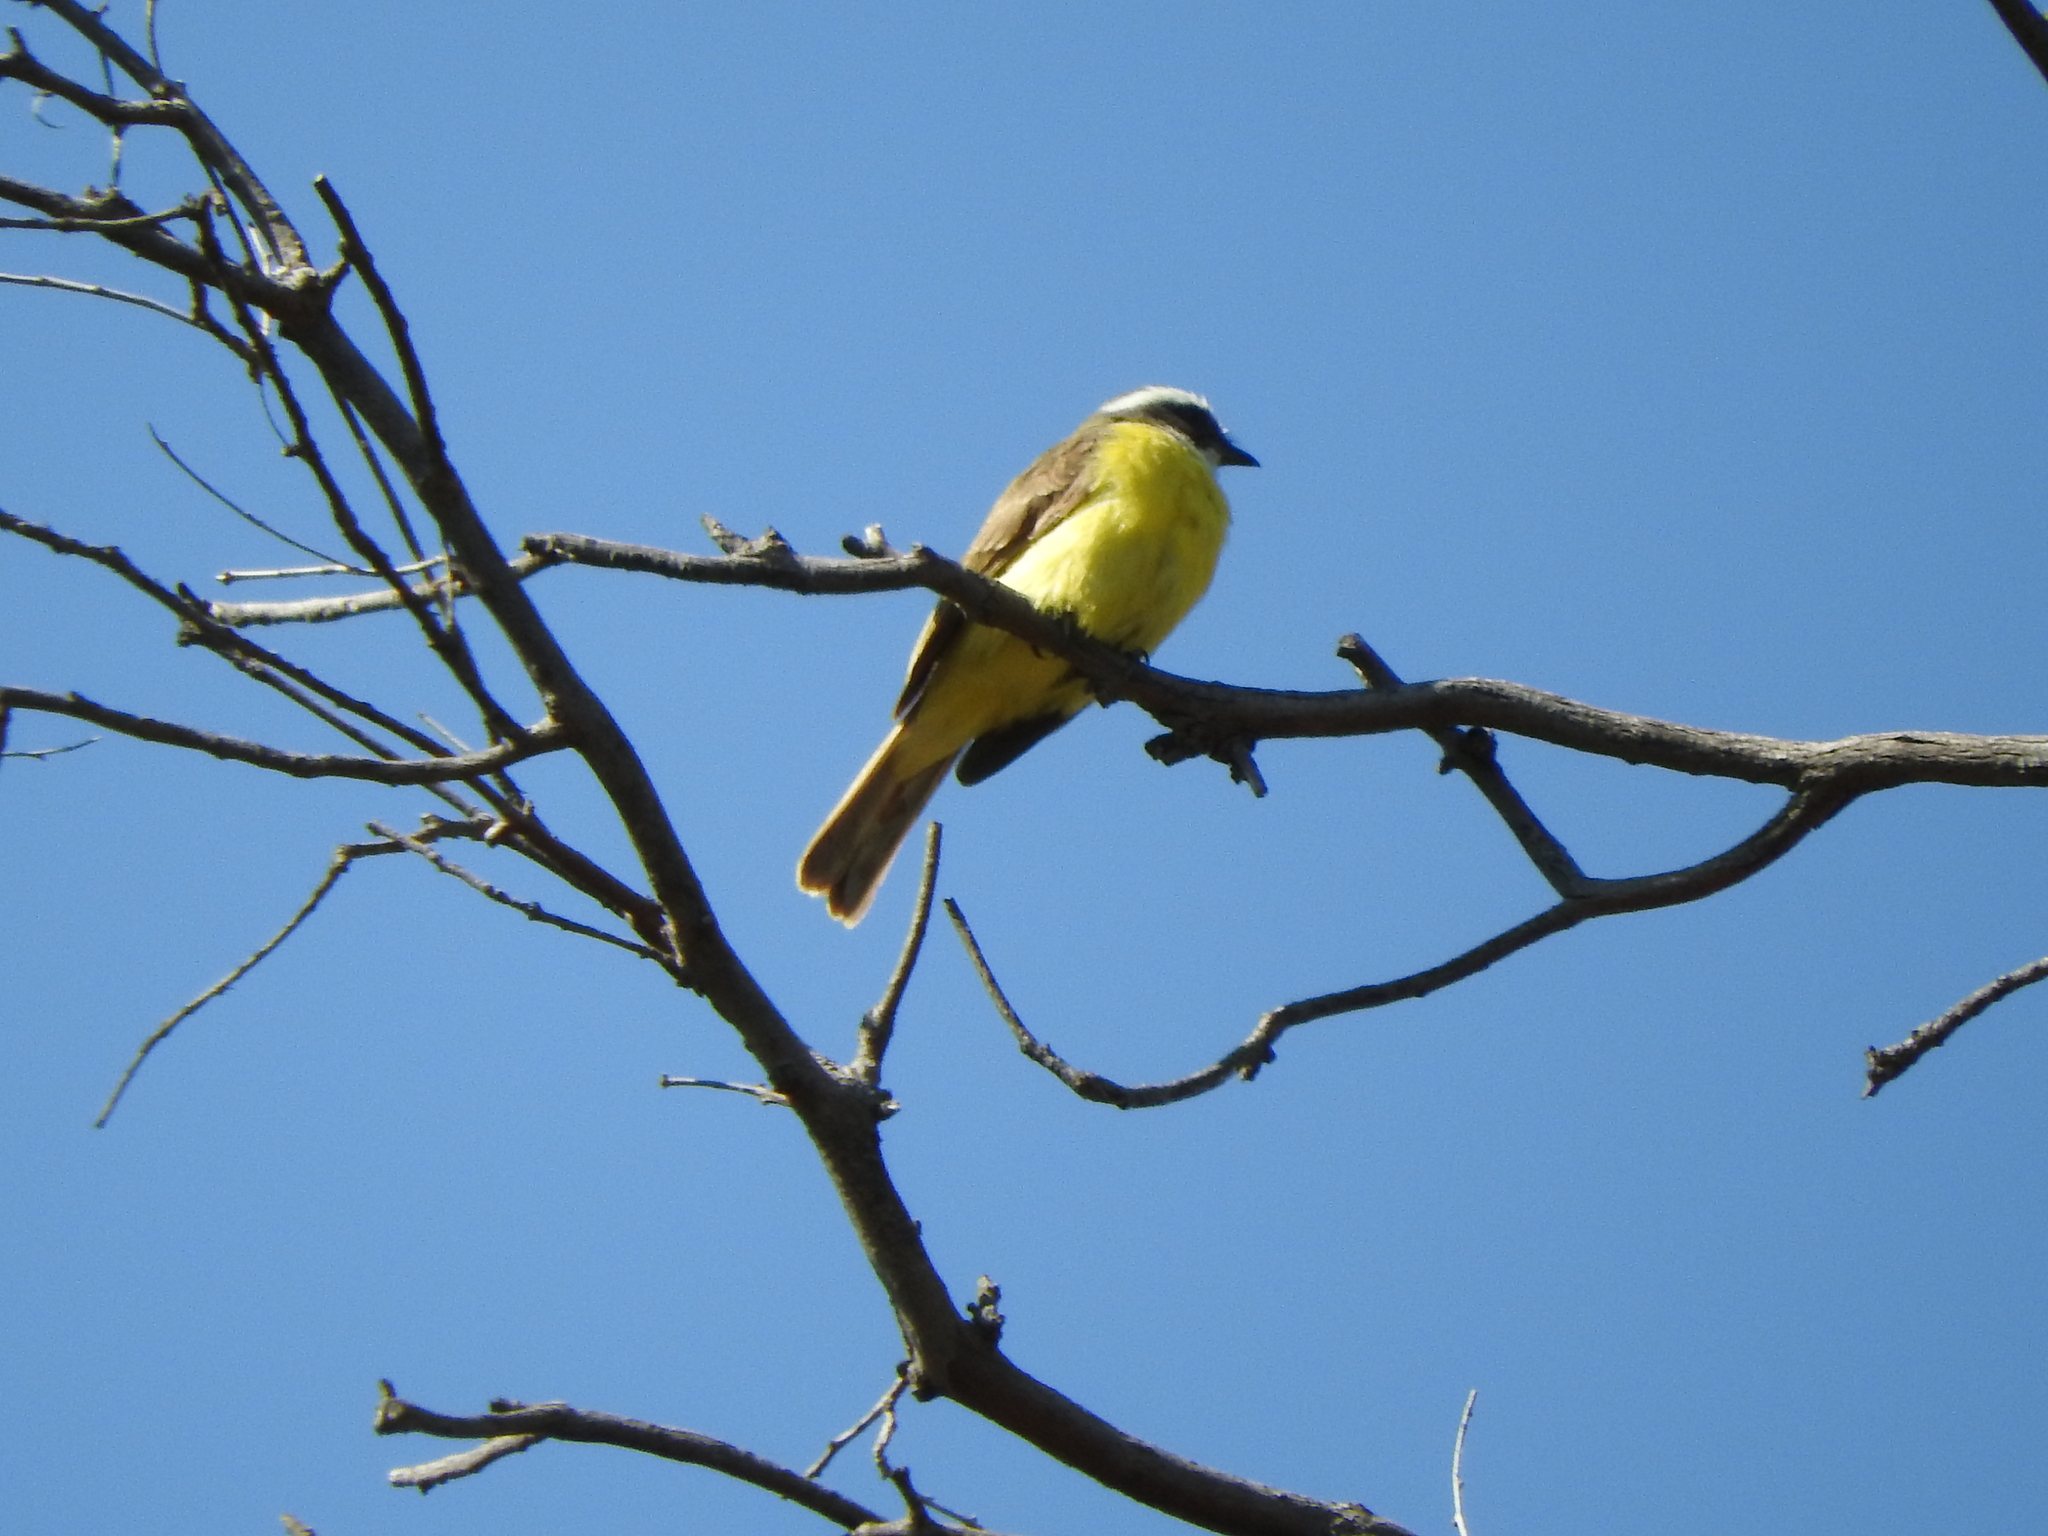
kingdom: Animalia
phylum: Chordata
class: Aves
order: Passeriformes
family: Tyrannidae
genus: Myiozetetes
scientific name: Myiozetetes similis
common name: Social flycatcher
